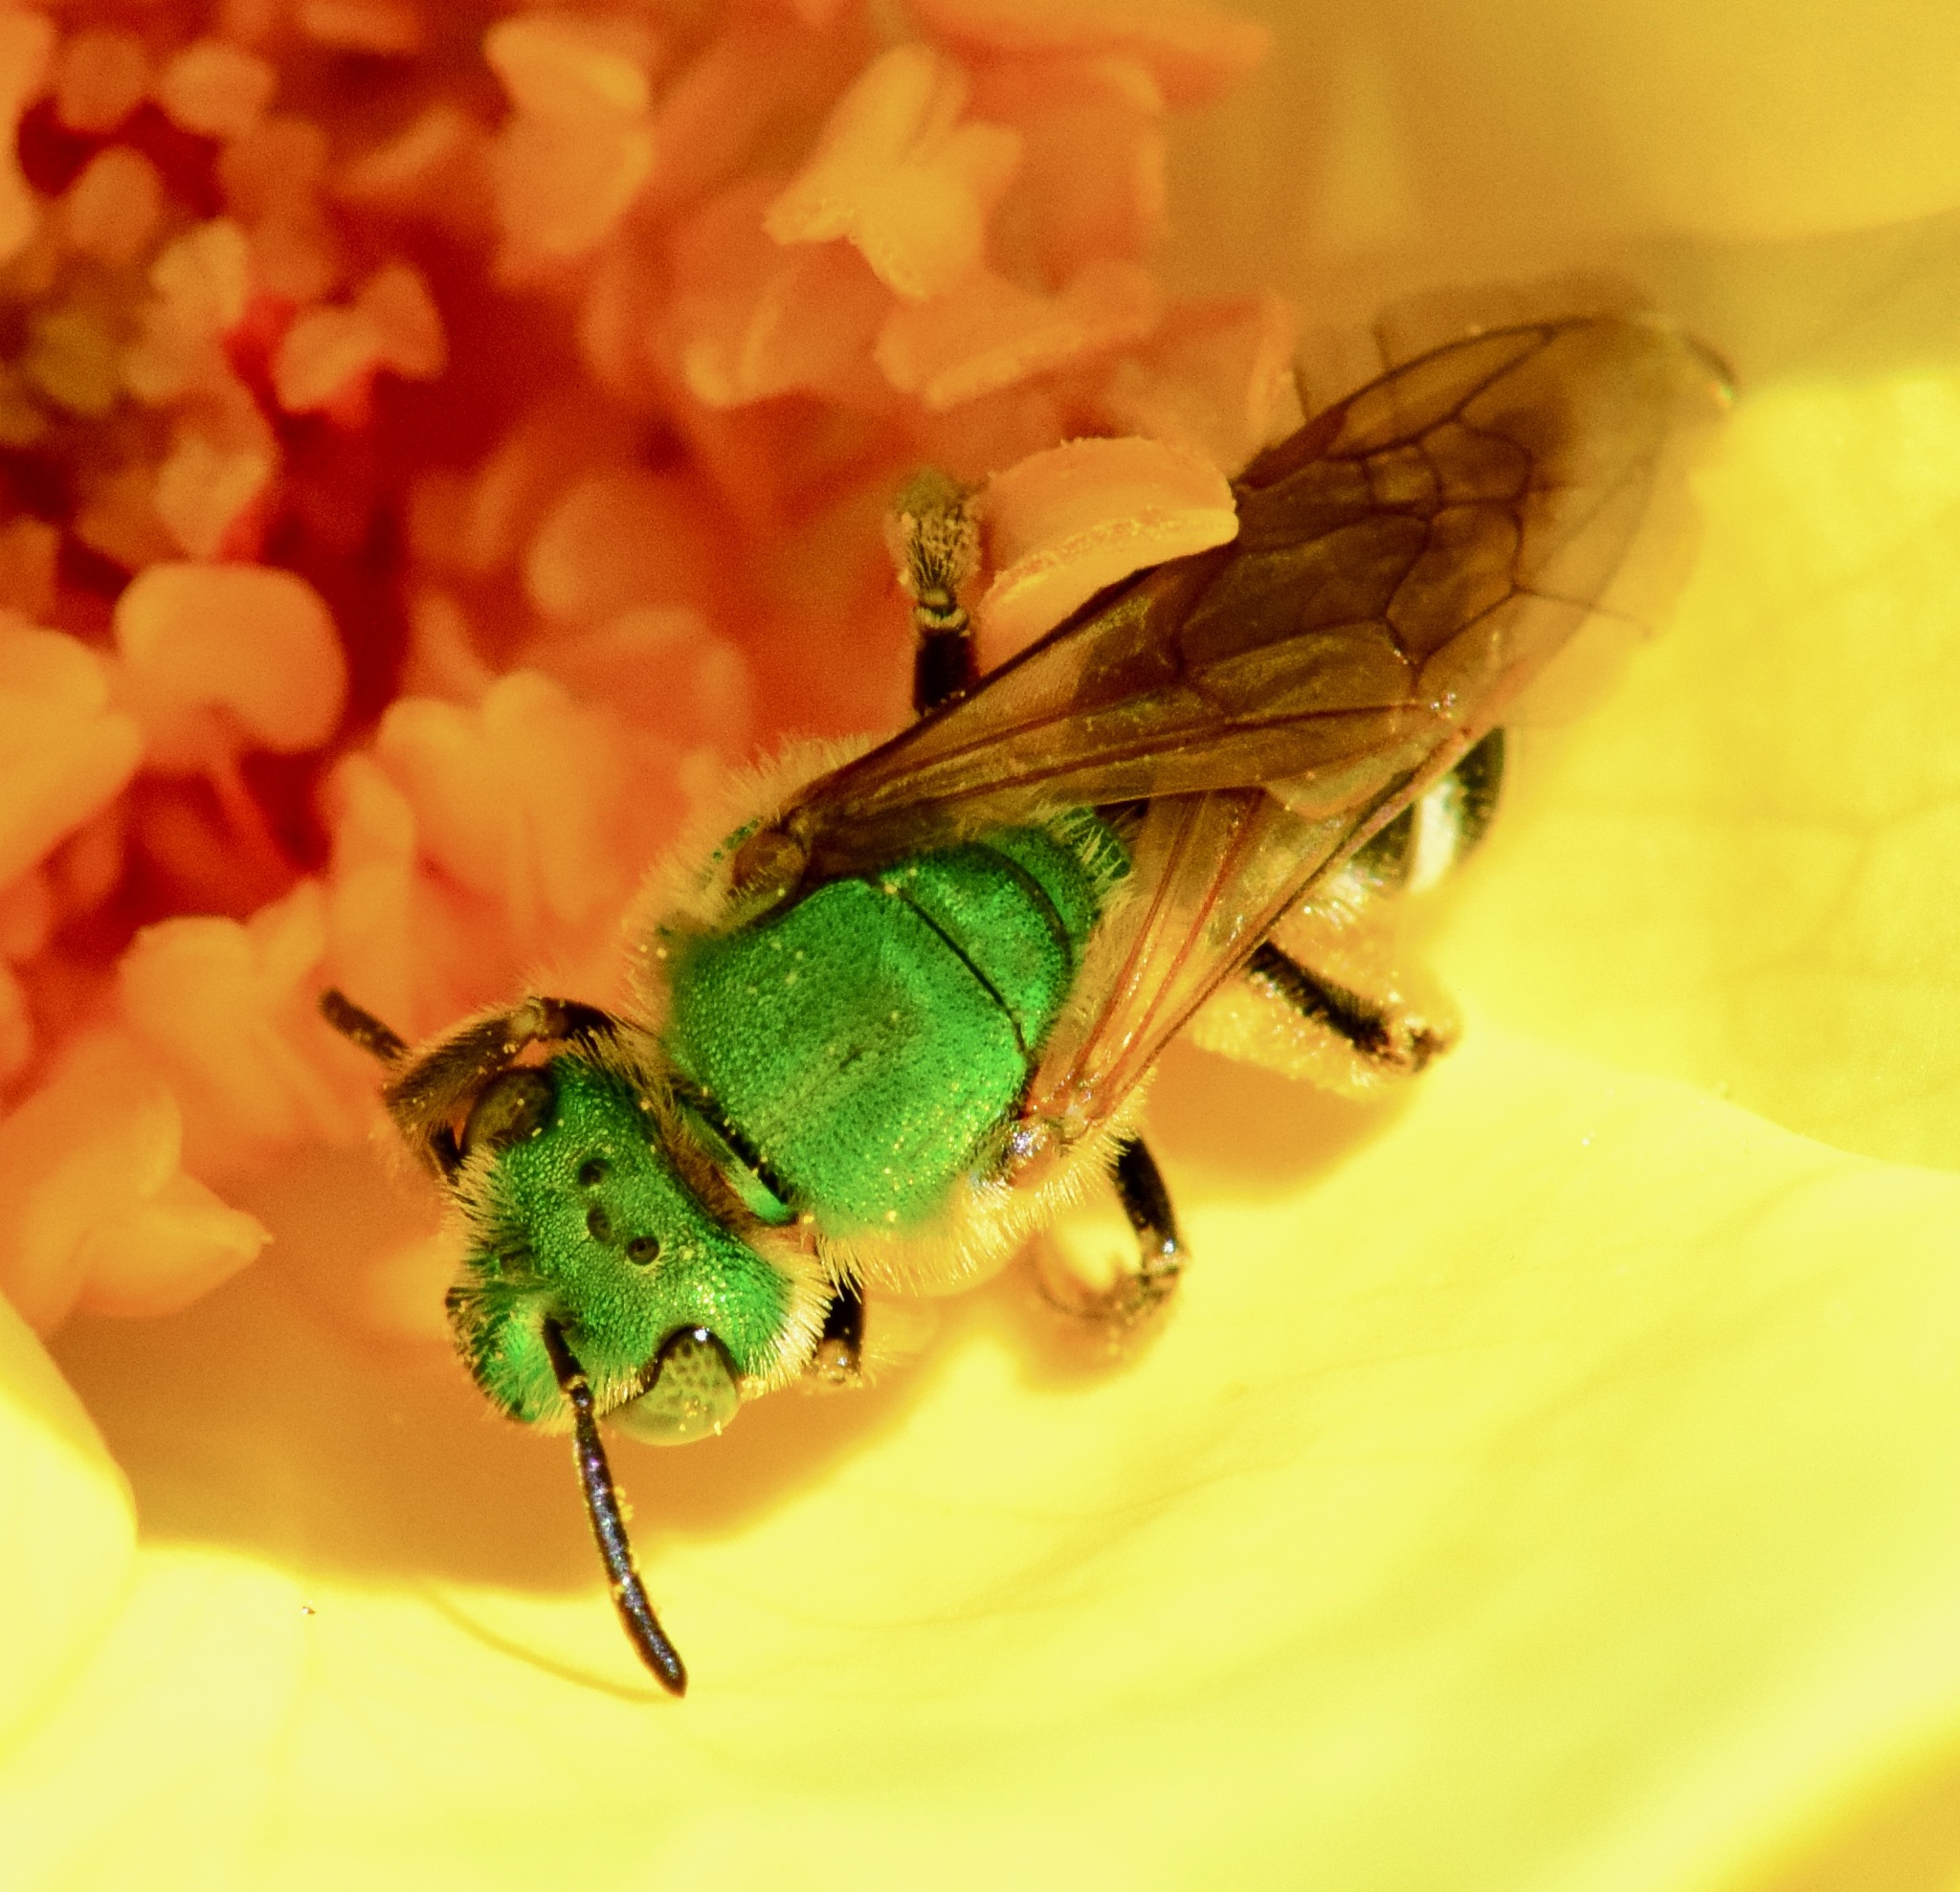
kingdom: Animalia
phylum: Arthropoda
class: Insecta
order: Hymenoptera
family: Halictidae
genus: Agapostemon
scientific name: Agapostemon virescens
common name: Bicolored striped sweat bee
